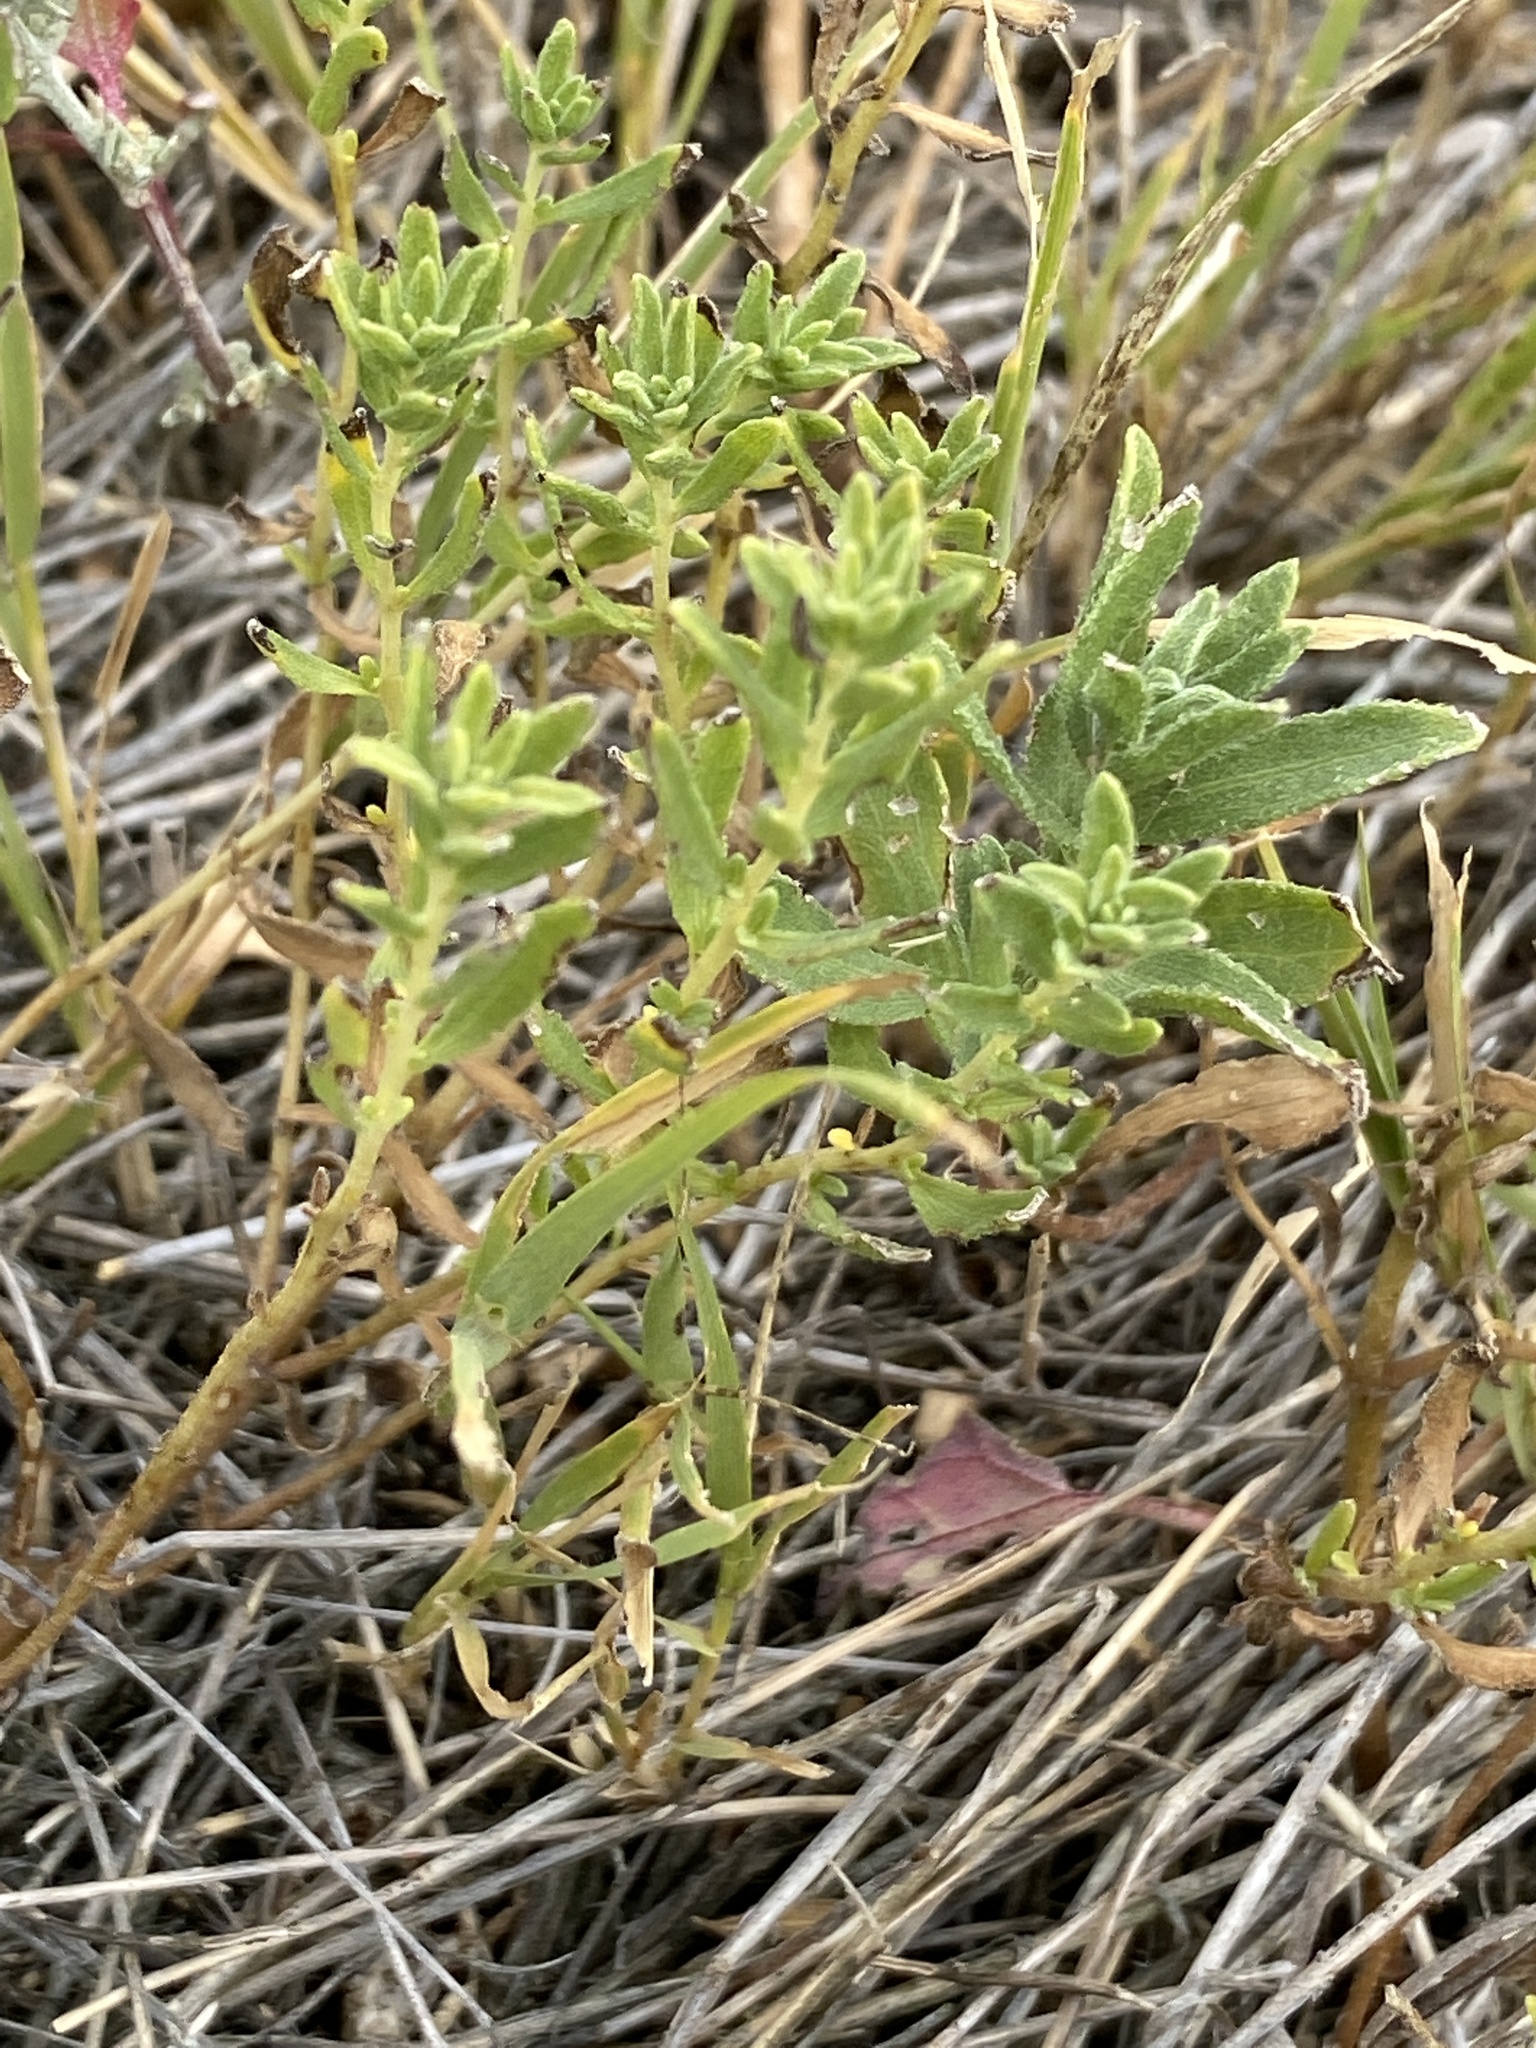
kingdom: Plantae
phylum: Tracheophyta
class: Magnoliopsida
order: Asterales
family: Asteraceae
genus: Iva
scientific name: Iva axillaris
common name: Poverty sumpweed
